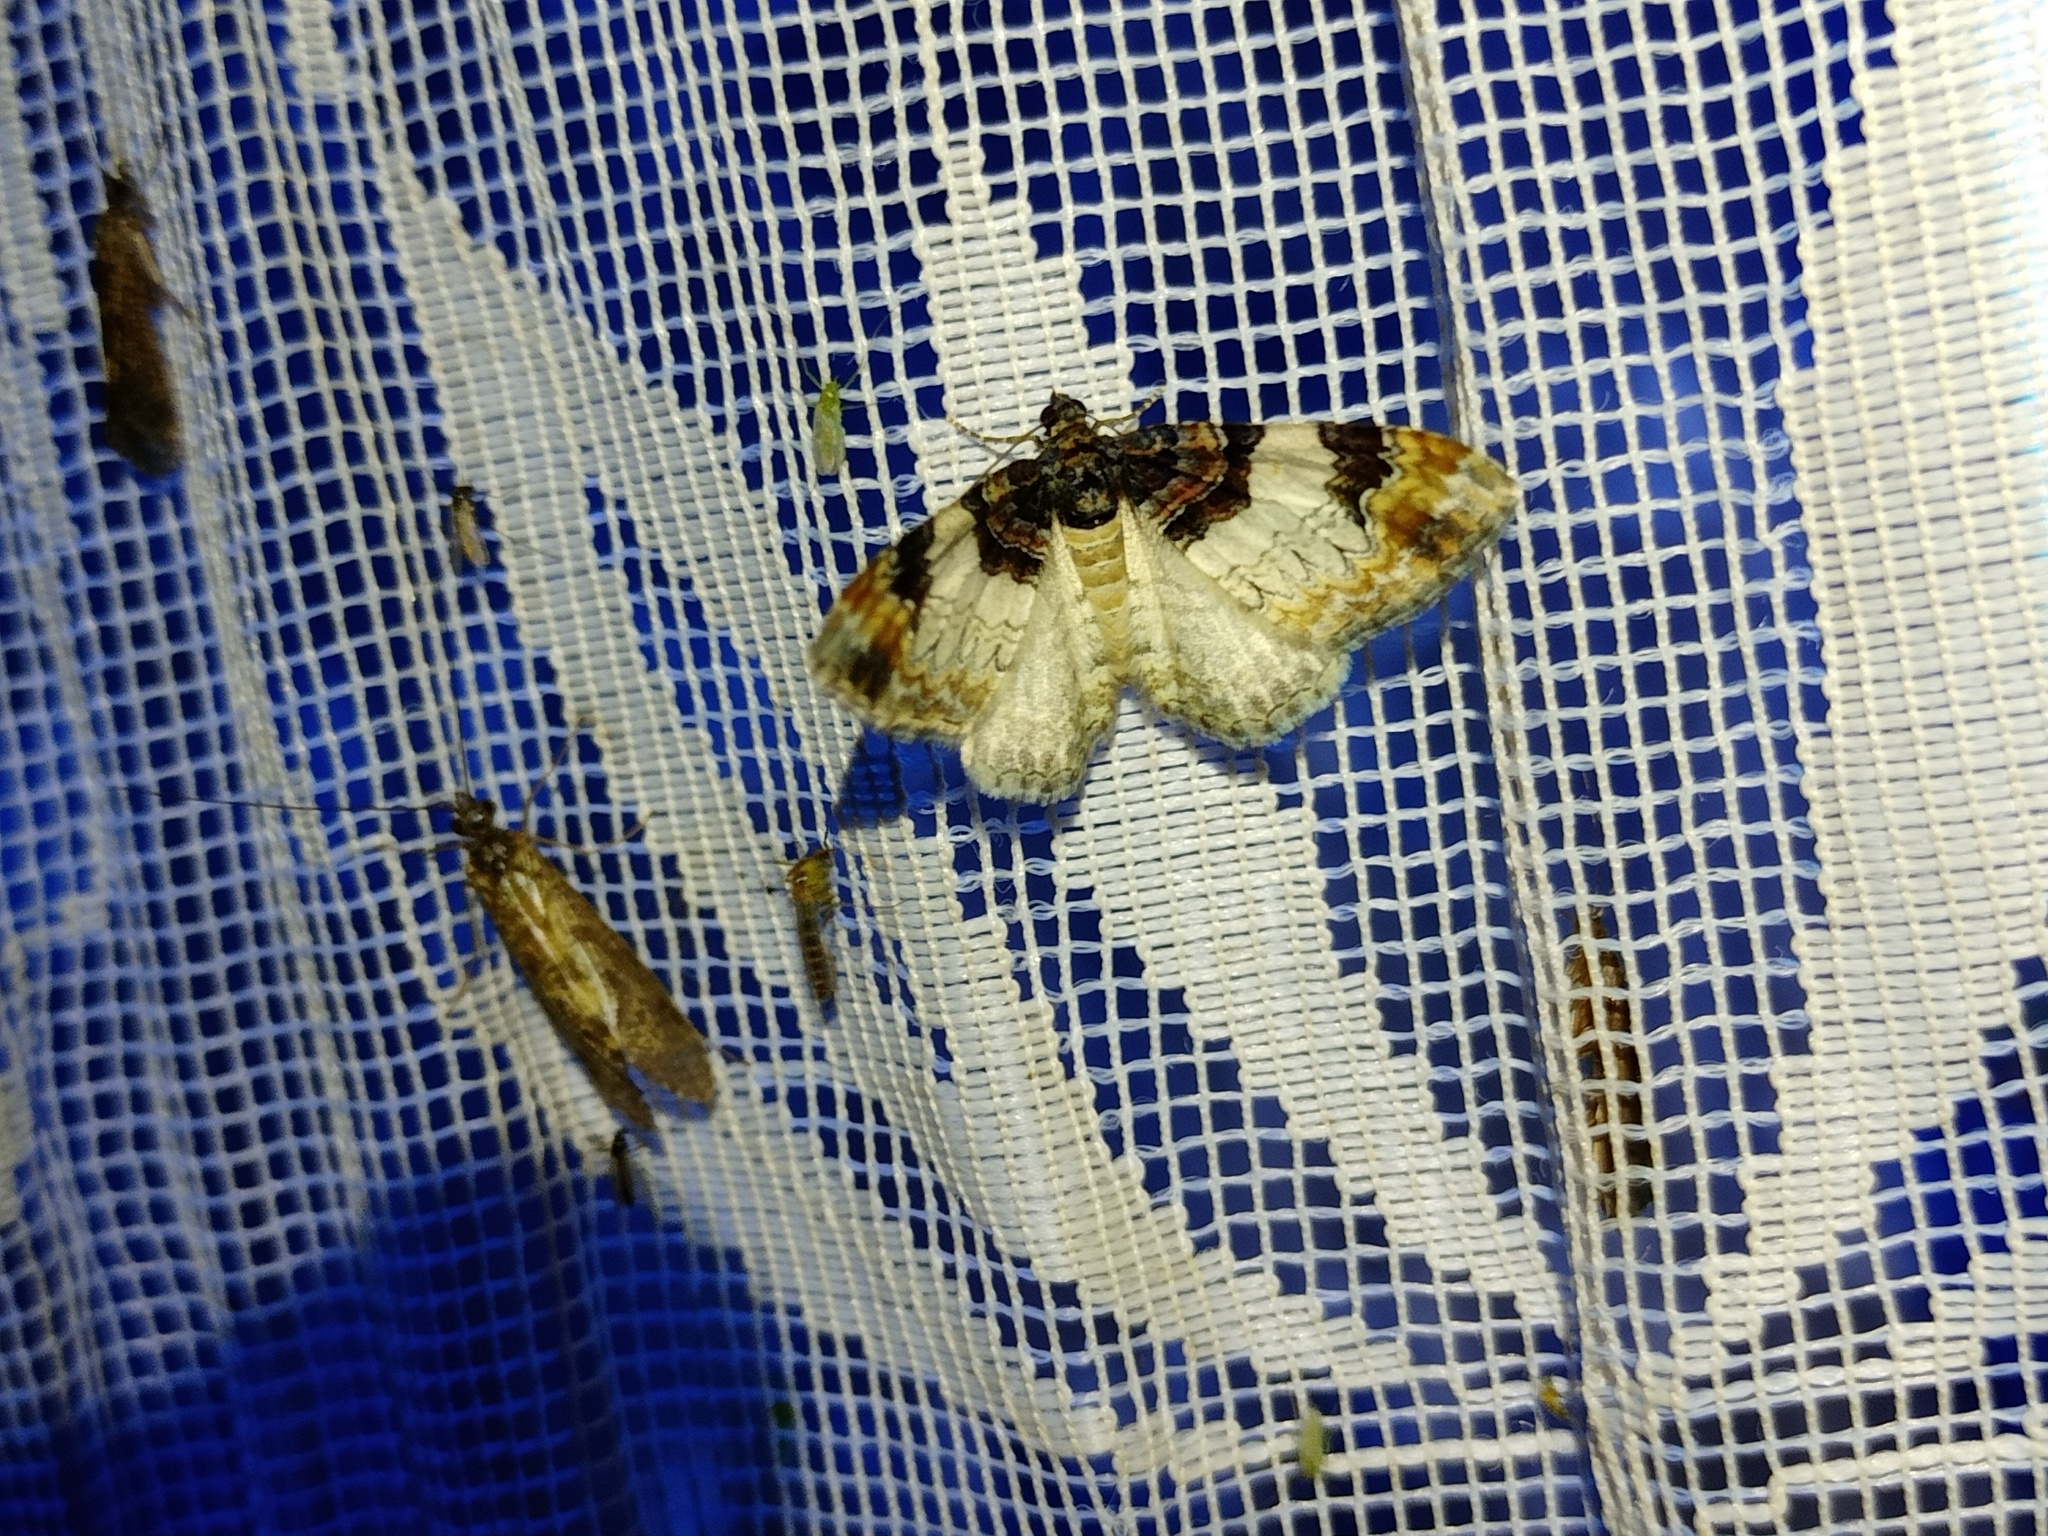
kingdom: Animalia
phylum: Arthropoda
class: Insecta
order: Lepidoptera
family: Geometridae
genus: Catarhoe
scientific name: Catarhoe cuculata
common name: Royal mantle
